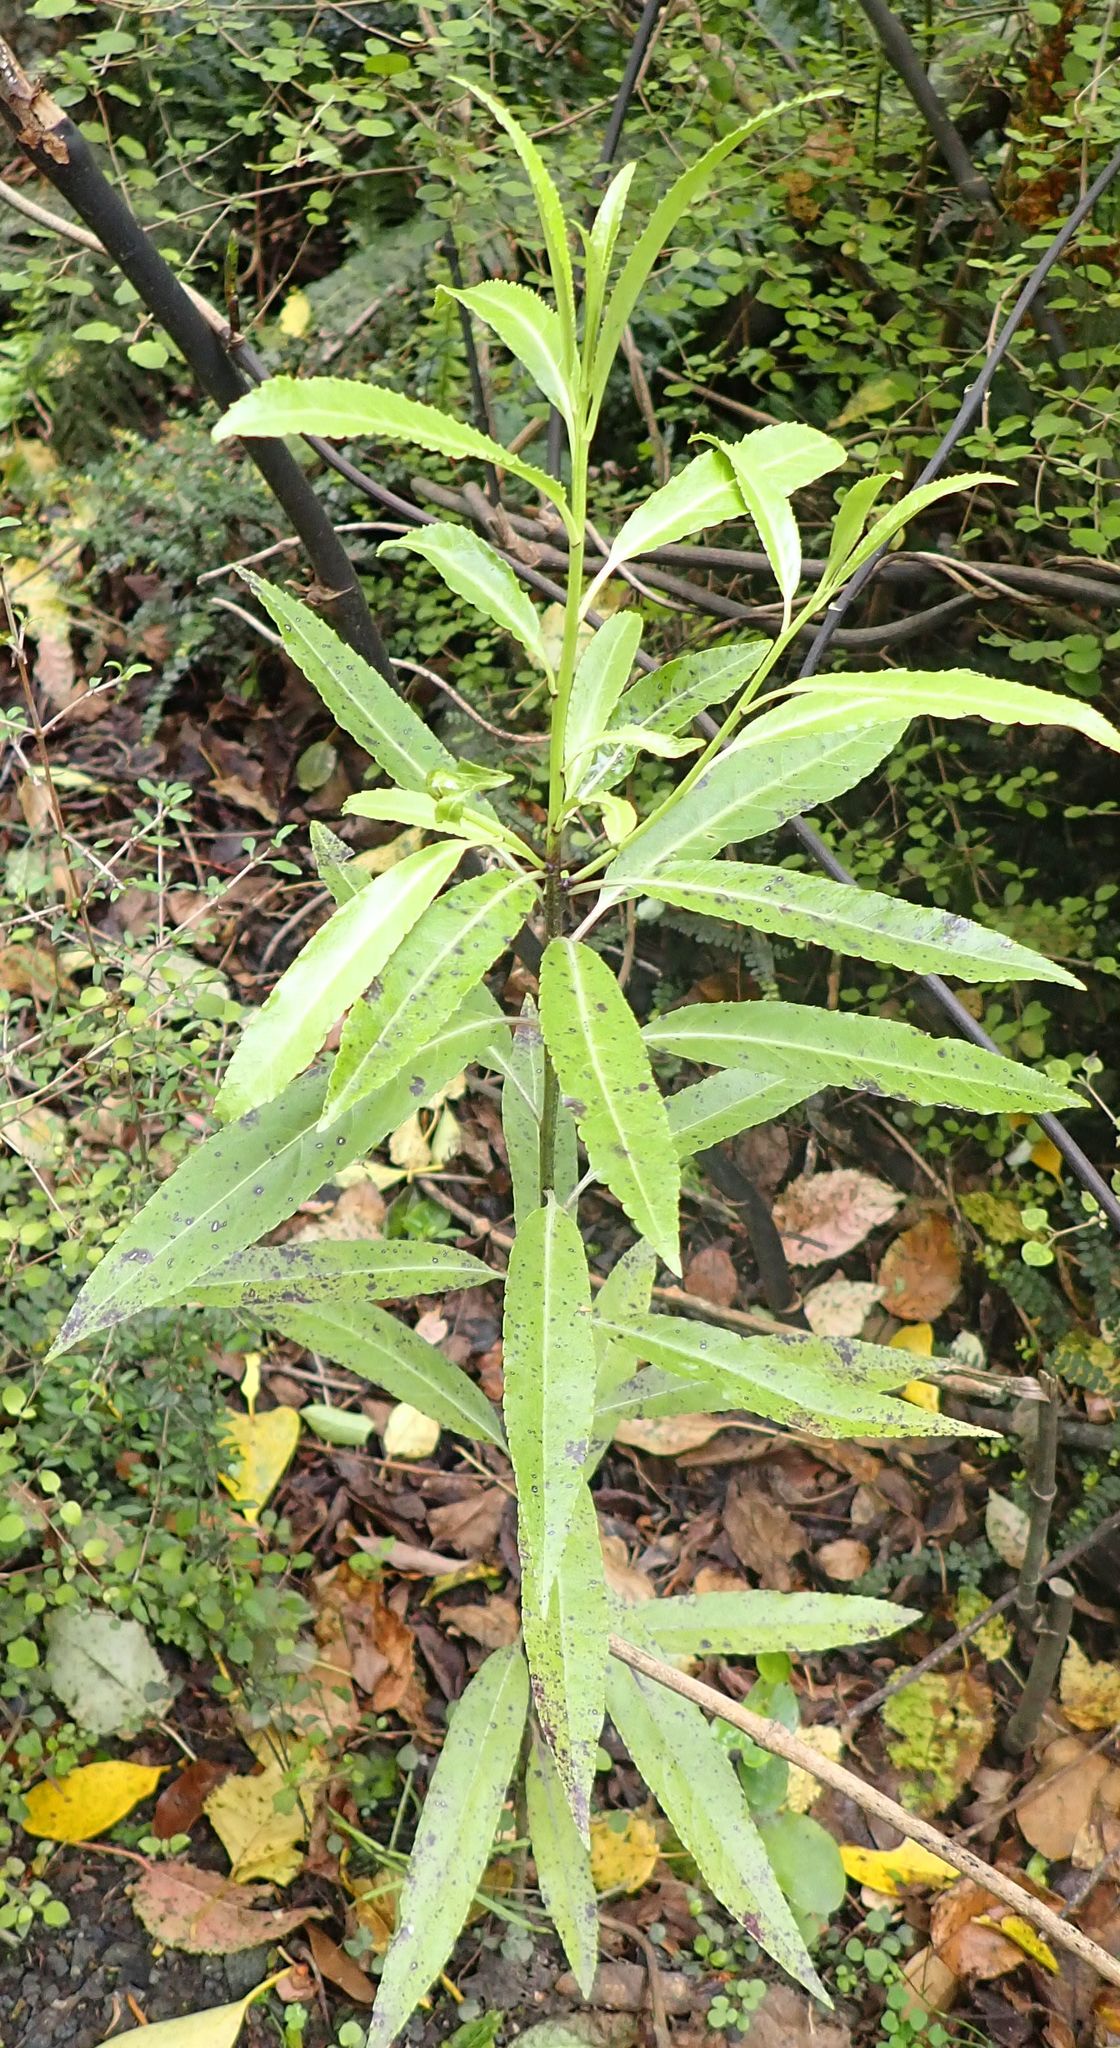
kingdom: Plantae
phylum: Tracheophyta
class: Magnoliopsida
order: Malpighiales
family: Violaceae
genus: Melicytus
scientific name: Melicytus lanceolatus
